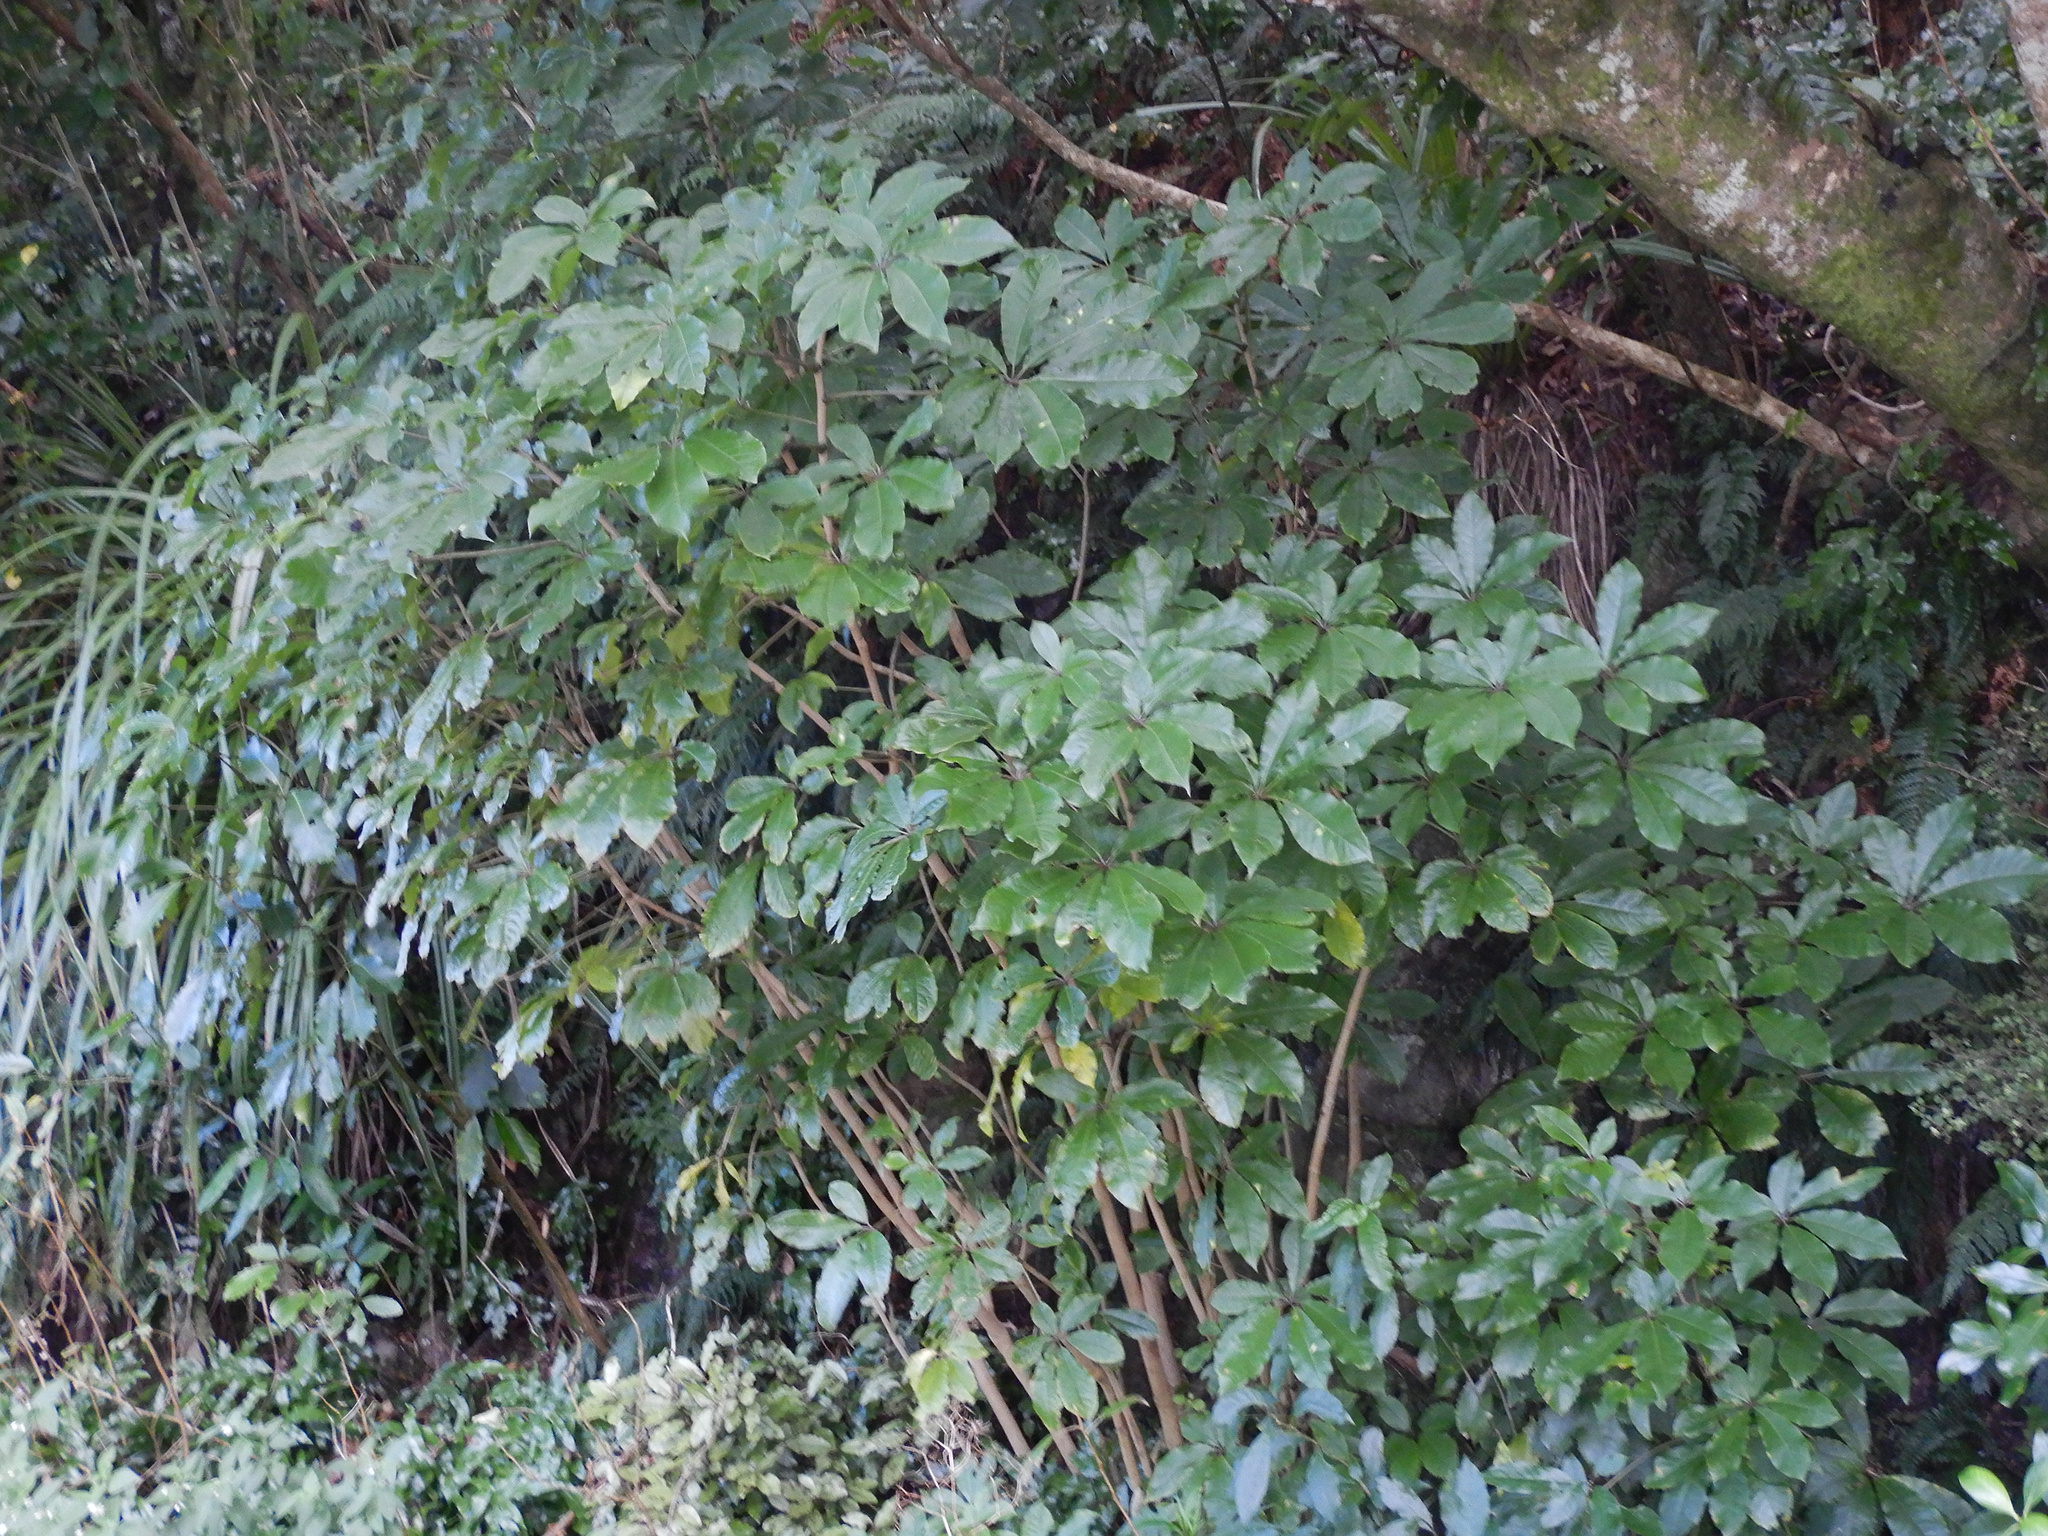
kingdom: Plantae
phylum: Tracheophyta
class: Magnoliopsida
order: Apiales
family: Araliaceae
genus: Schefflera
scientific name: Schefflera digitata
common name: Pate
